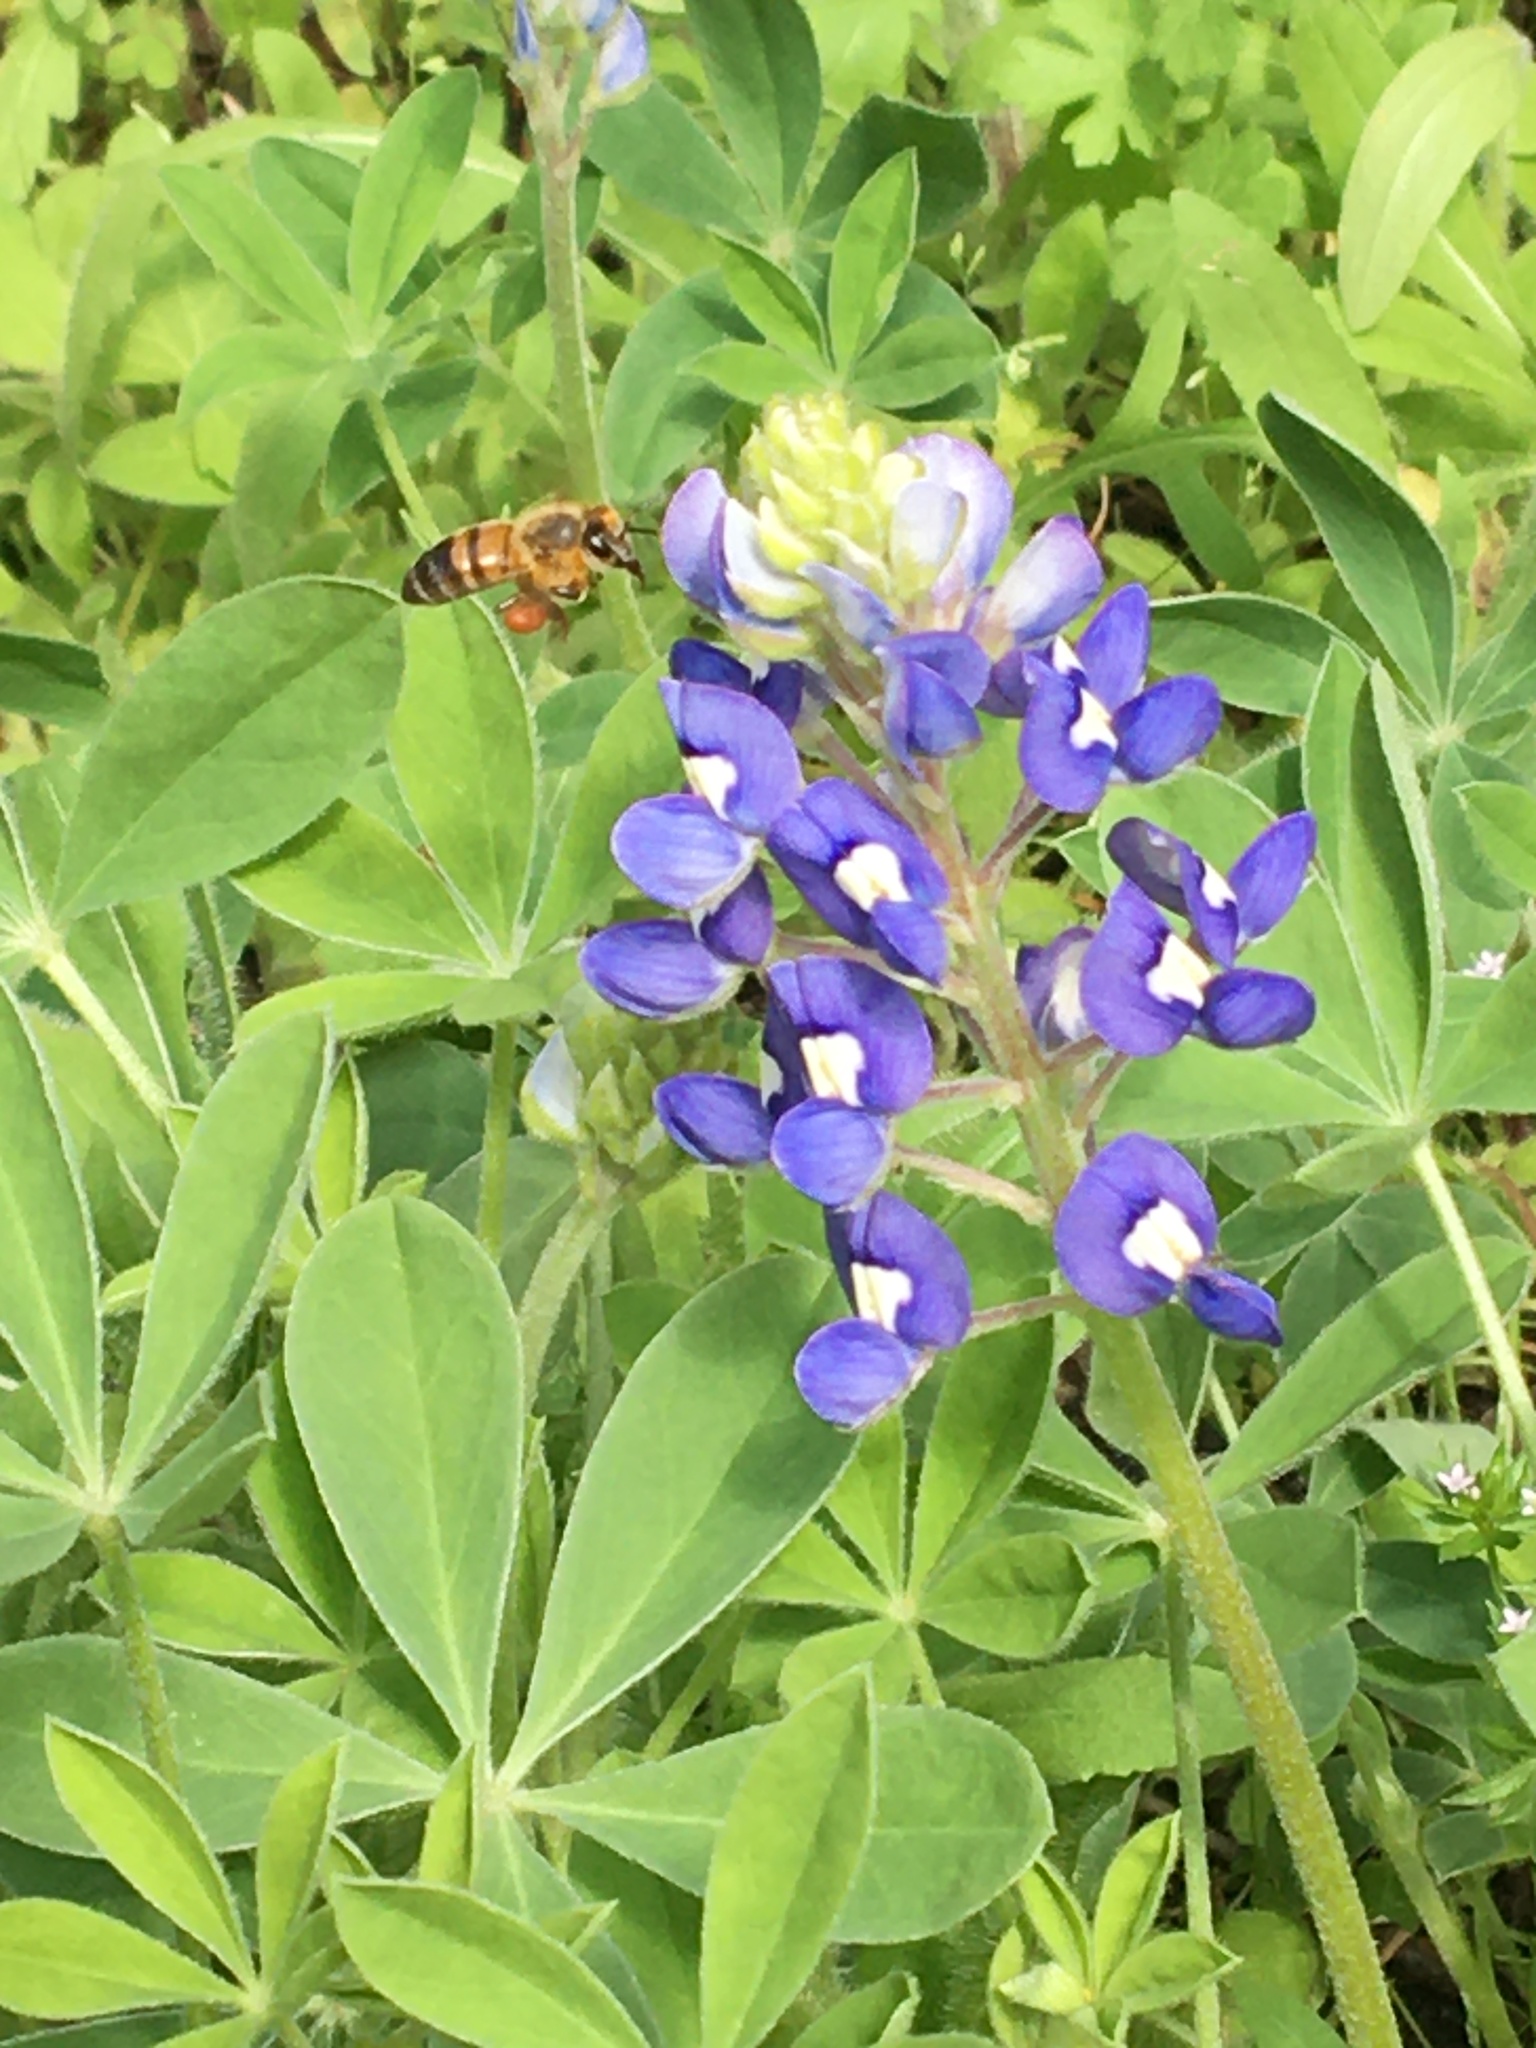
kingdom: Animalia
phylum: Arthropoda
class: Insecta
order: Hymenoptera
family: Apidae
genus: Apis
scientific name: Apis mellifera
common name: Honey bee
